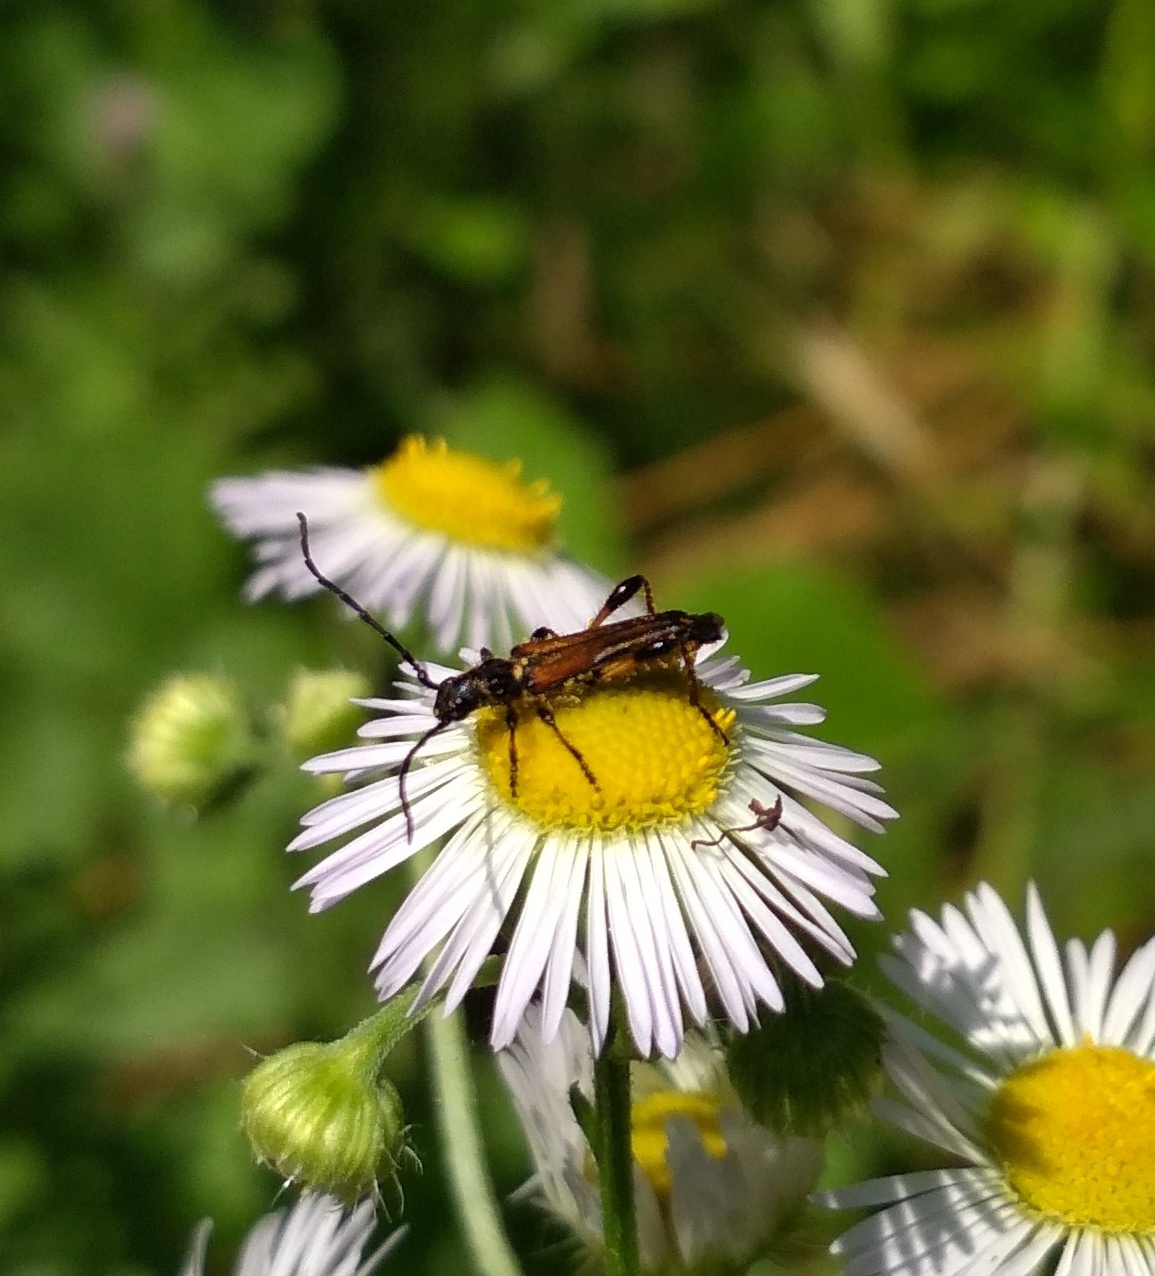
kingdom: Animalia
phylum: Arthropoda
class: Insecta
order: Coleoptera
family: Cerambycidae
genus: Stenopterus
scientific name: Stenopterus ater
